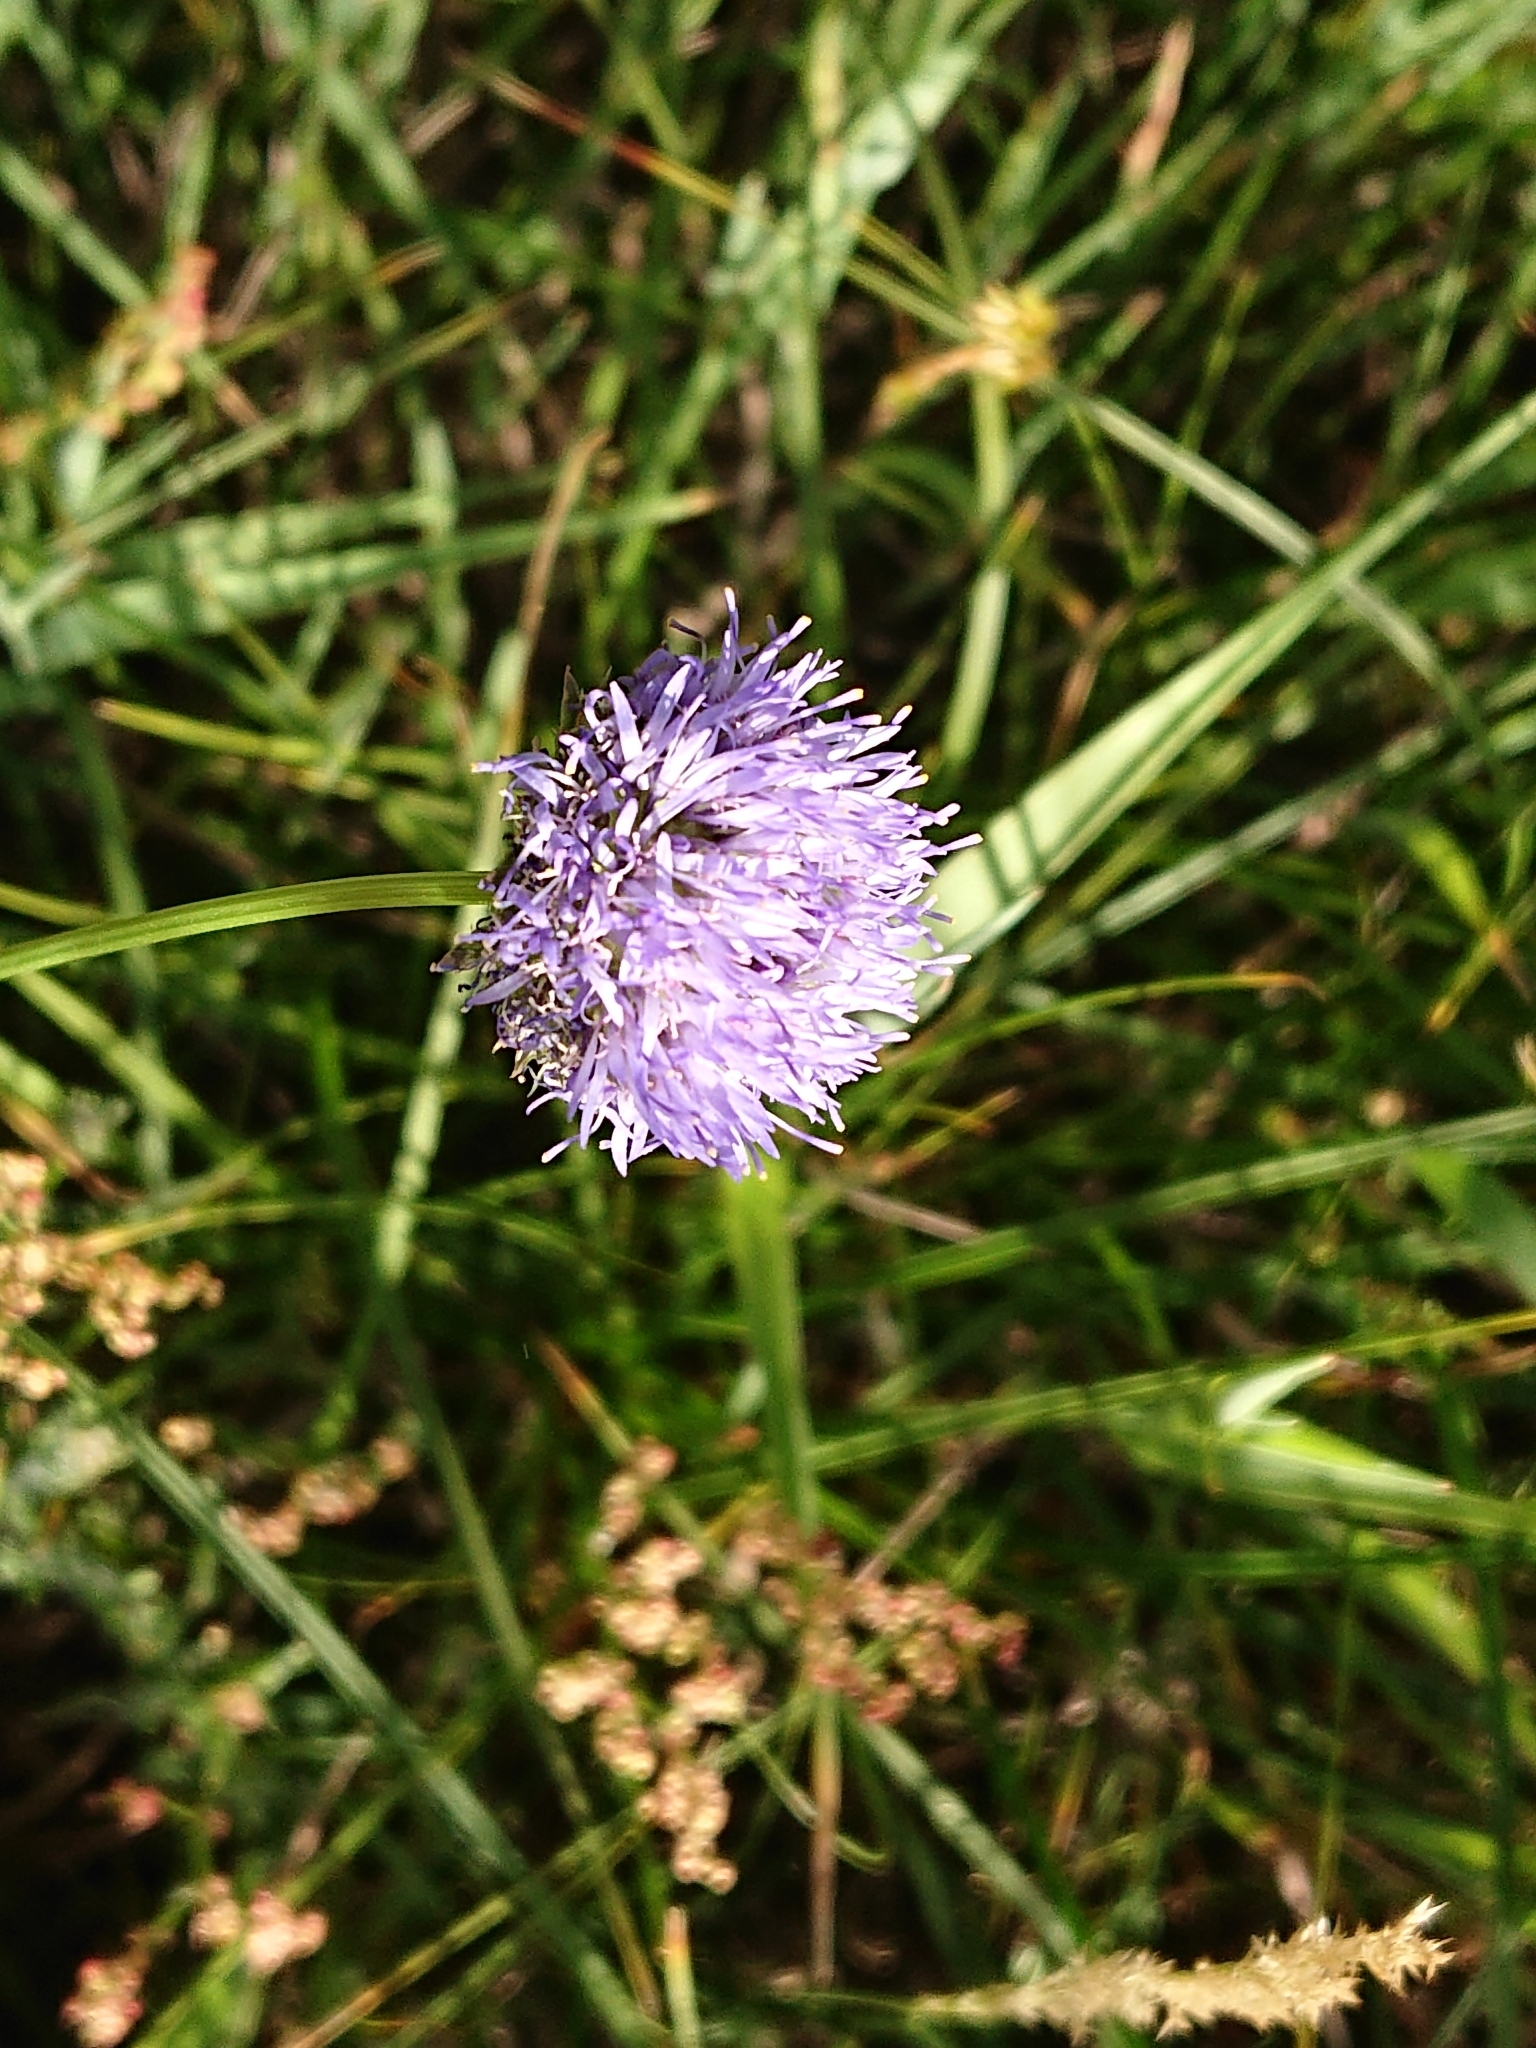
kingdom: Plantae
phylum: Tracheophyta
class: Magnoliopsida
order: Asterales
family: Campanulaceae
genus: Jasione
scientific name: Jasione montana
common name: Sheep's-bit
